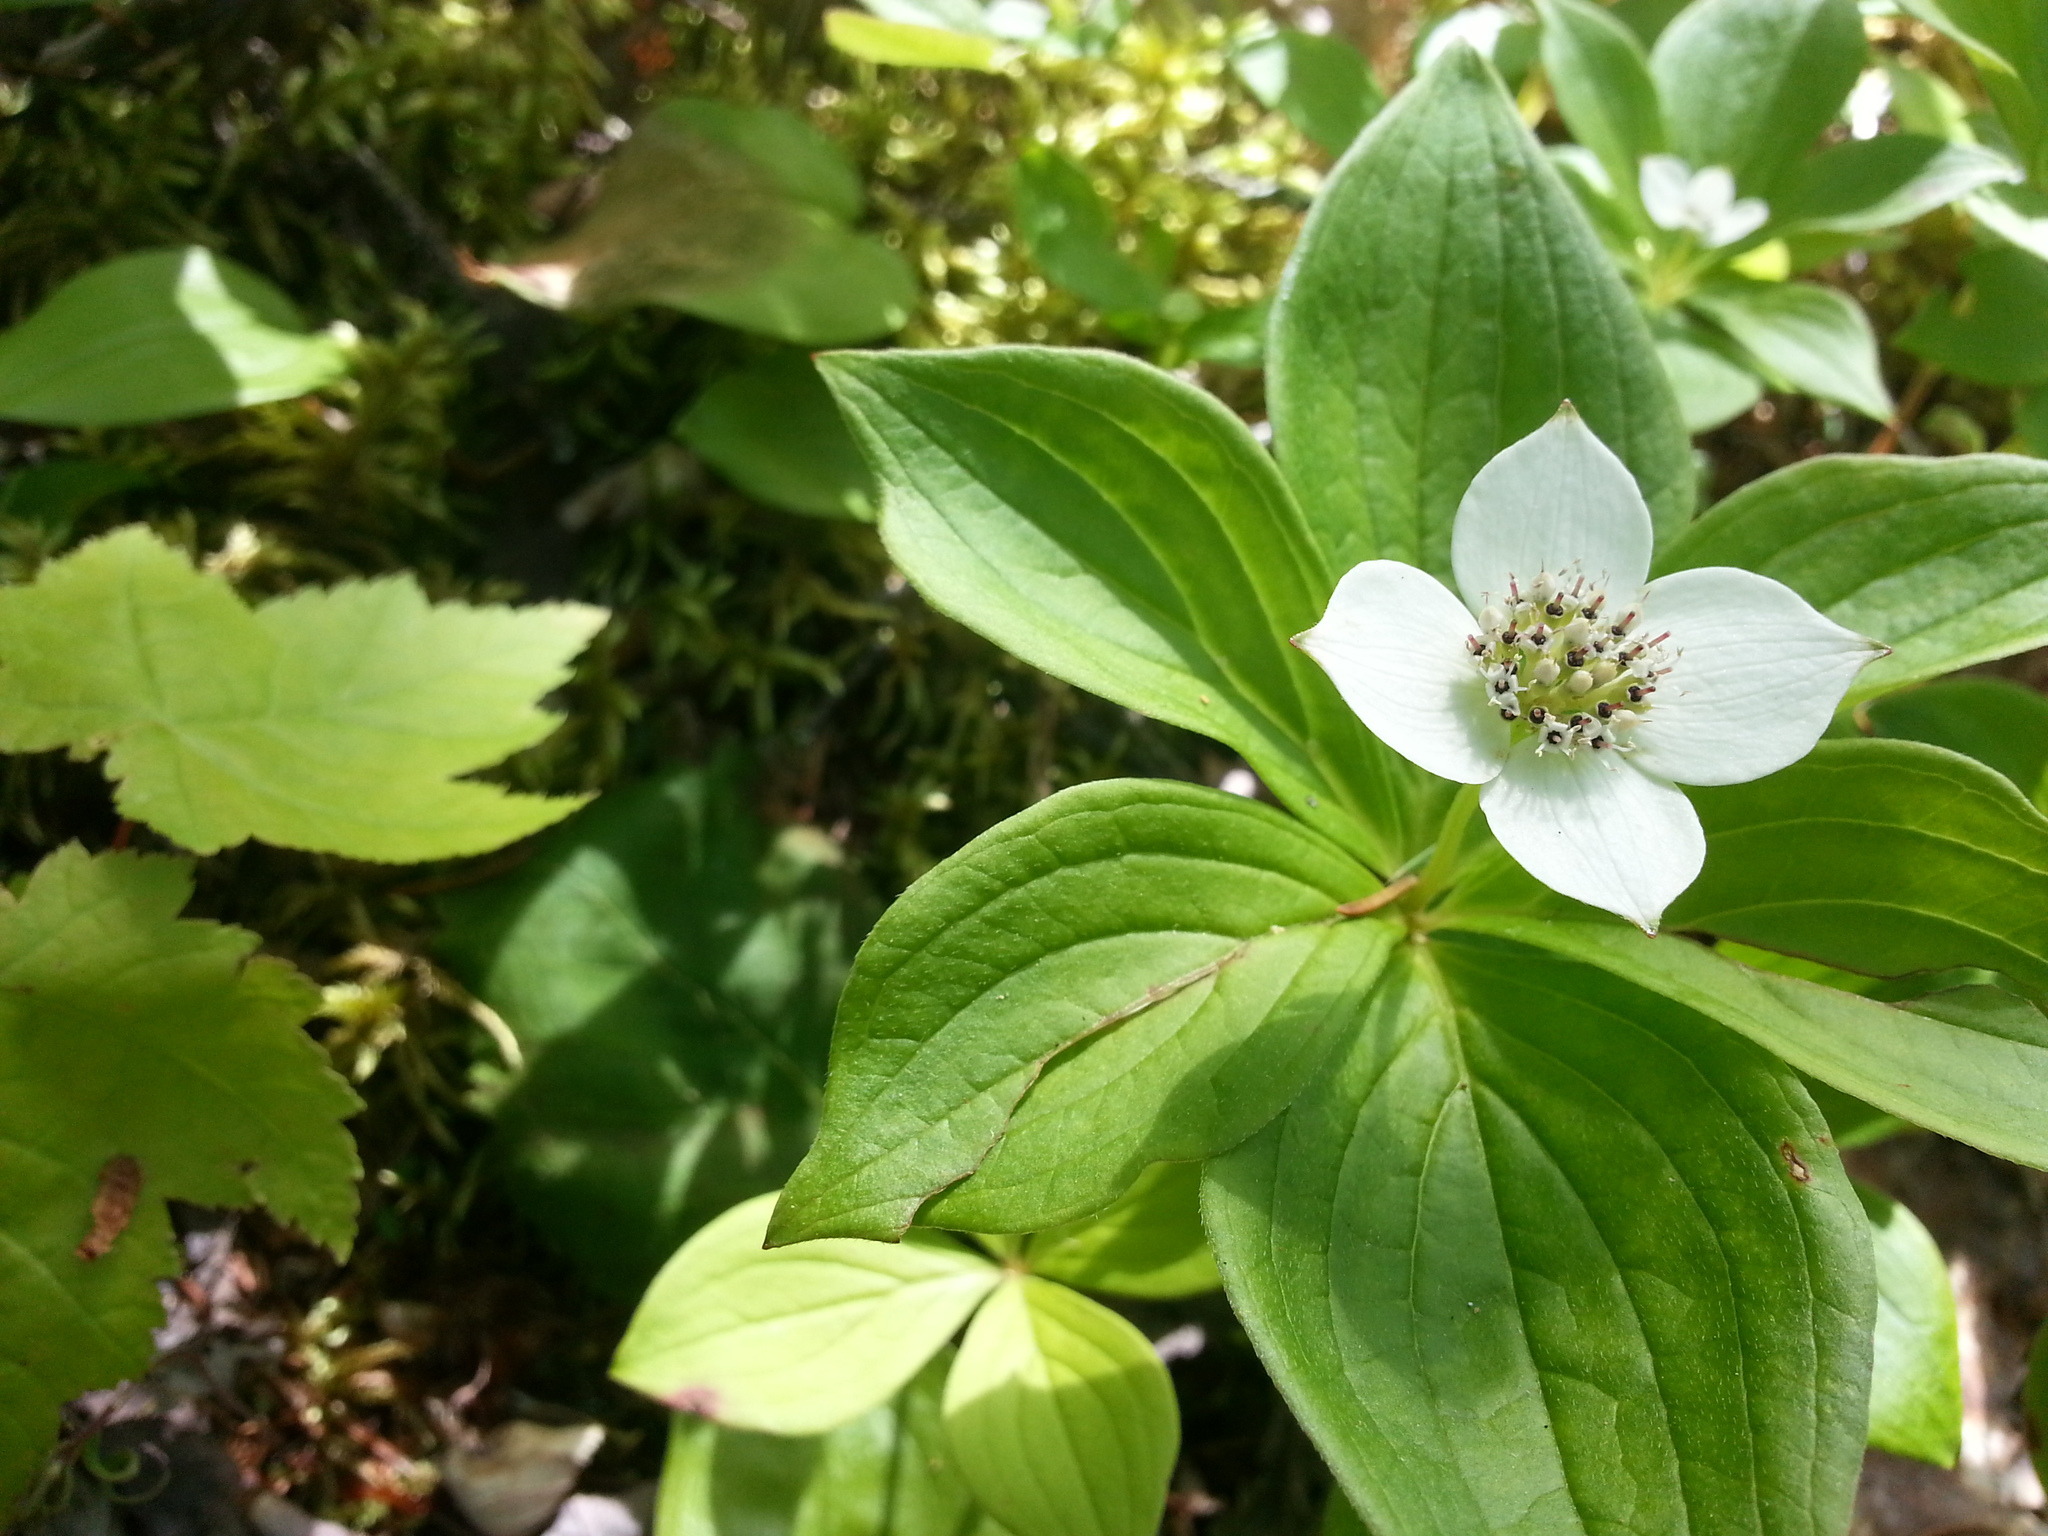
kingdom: Plantae
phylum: Tracheophyta
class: Magnoliopsida
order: Cornales
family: Cornaceae
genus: Cornus
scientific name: Cornus canadensis
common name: Creeping dogwood
